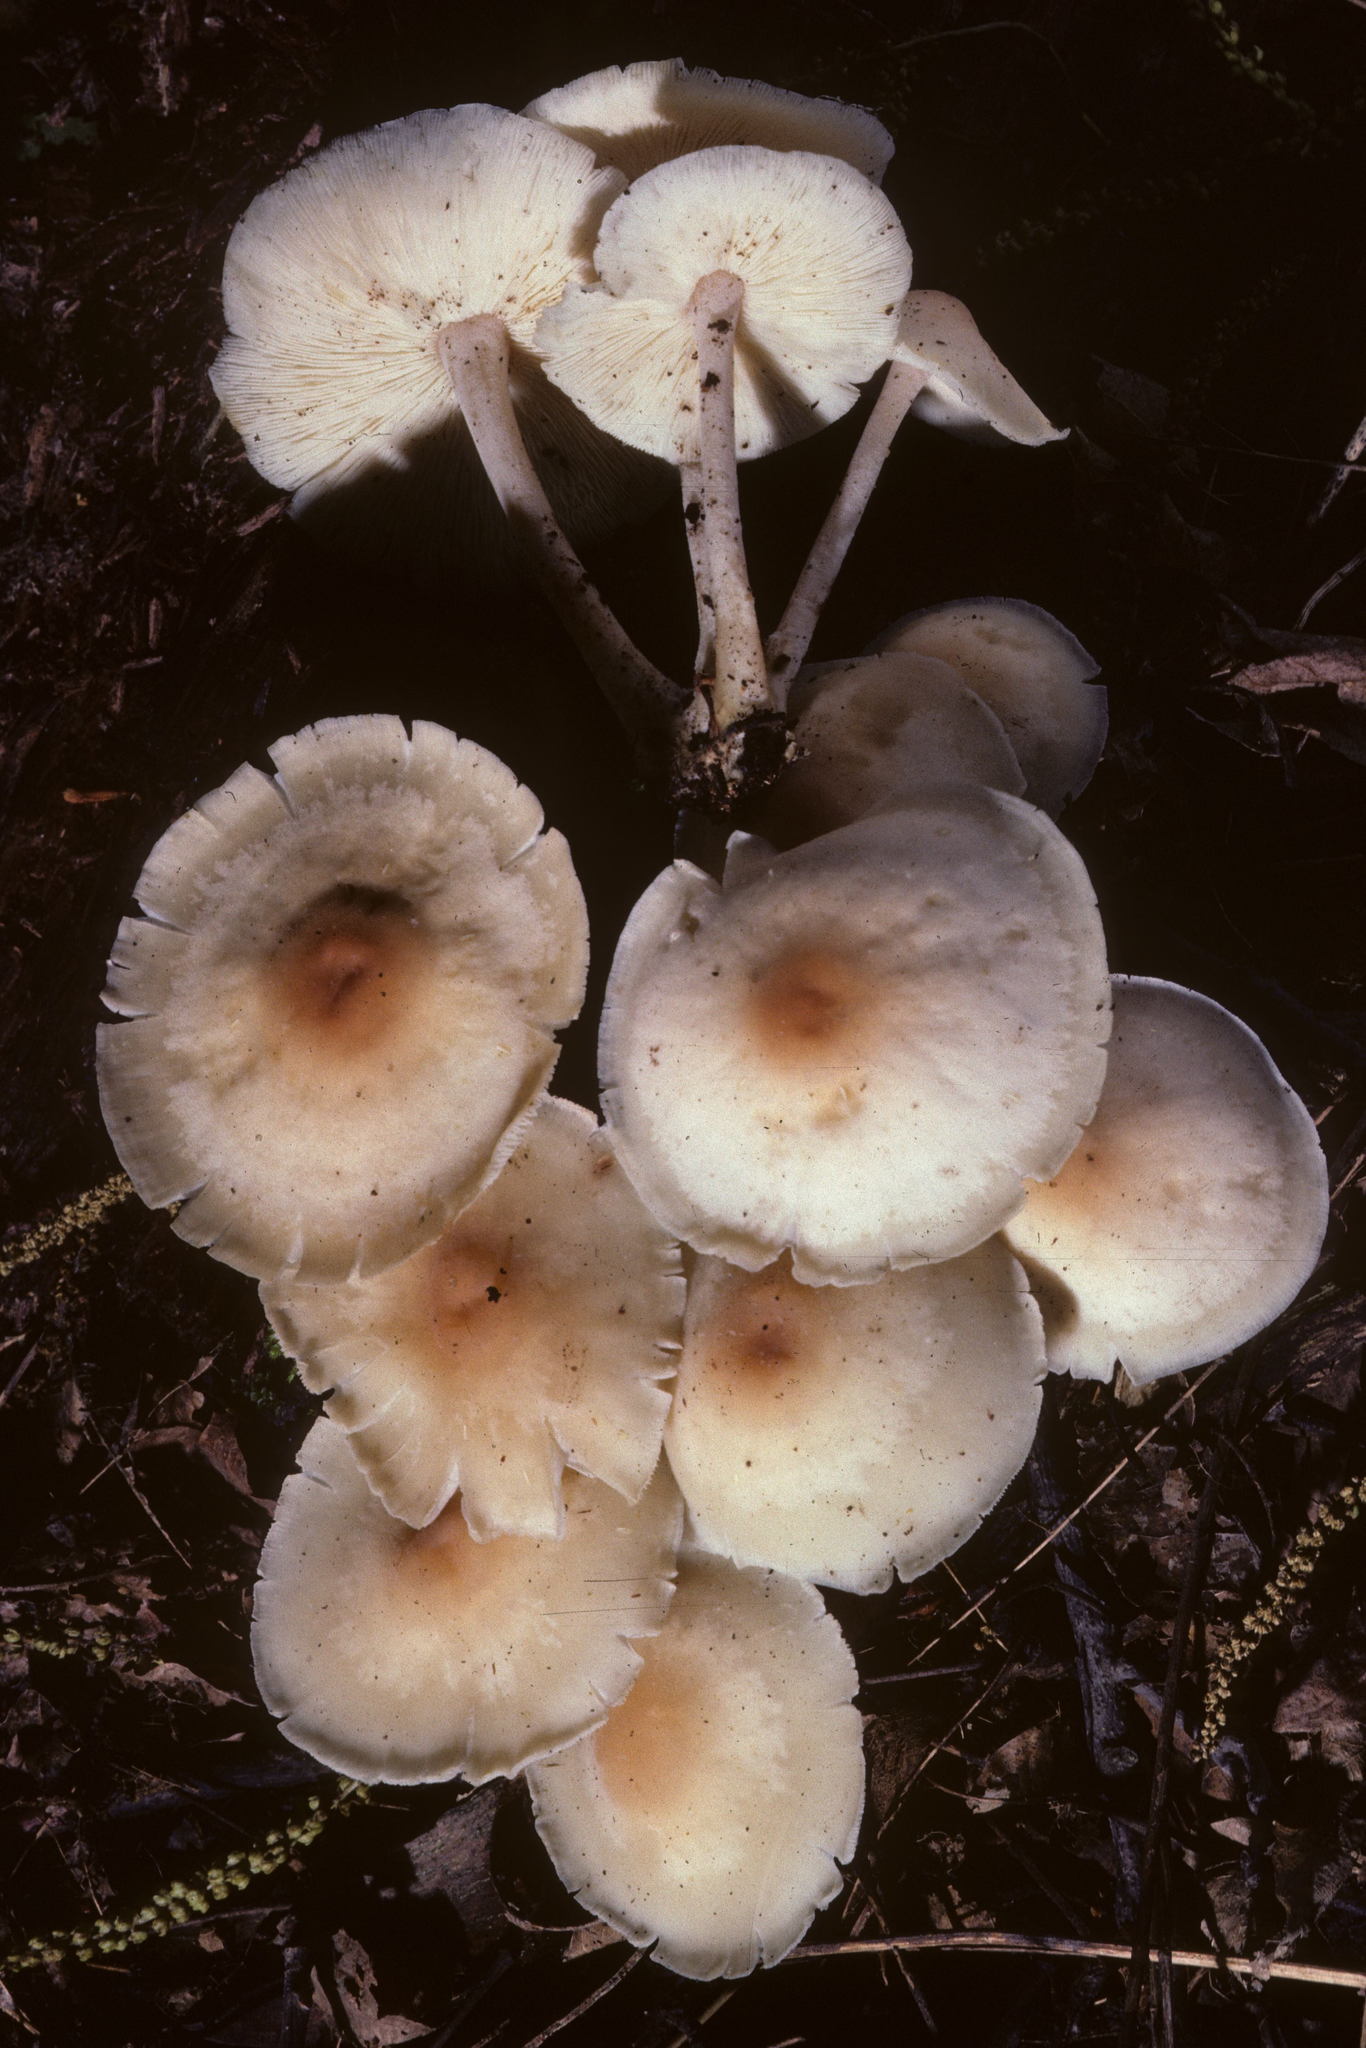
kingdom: Fungi
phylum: Basidiomycota
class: Agaricomycetes
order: Agaricales
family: Omphalotaceae
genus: Gymnopus
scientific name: Gymnopus polyphyllus
